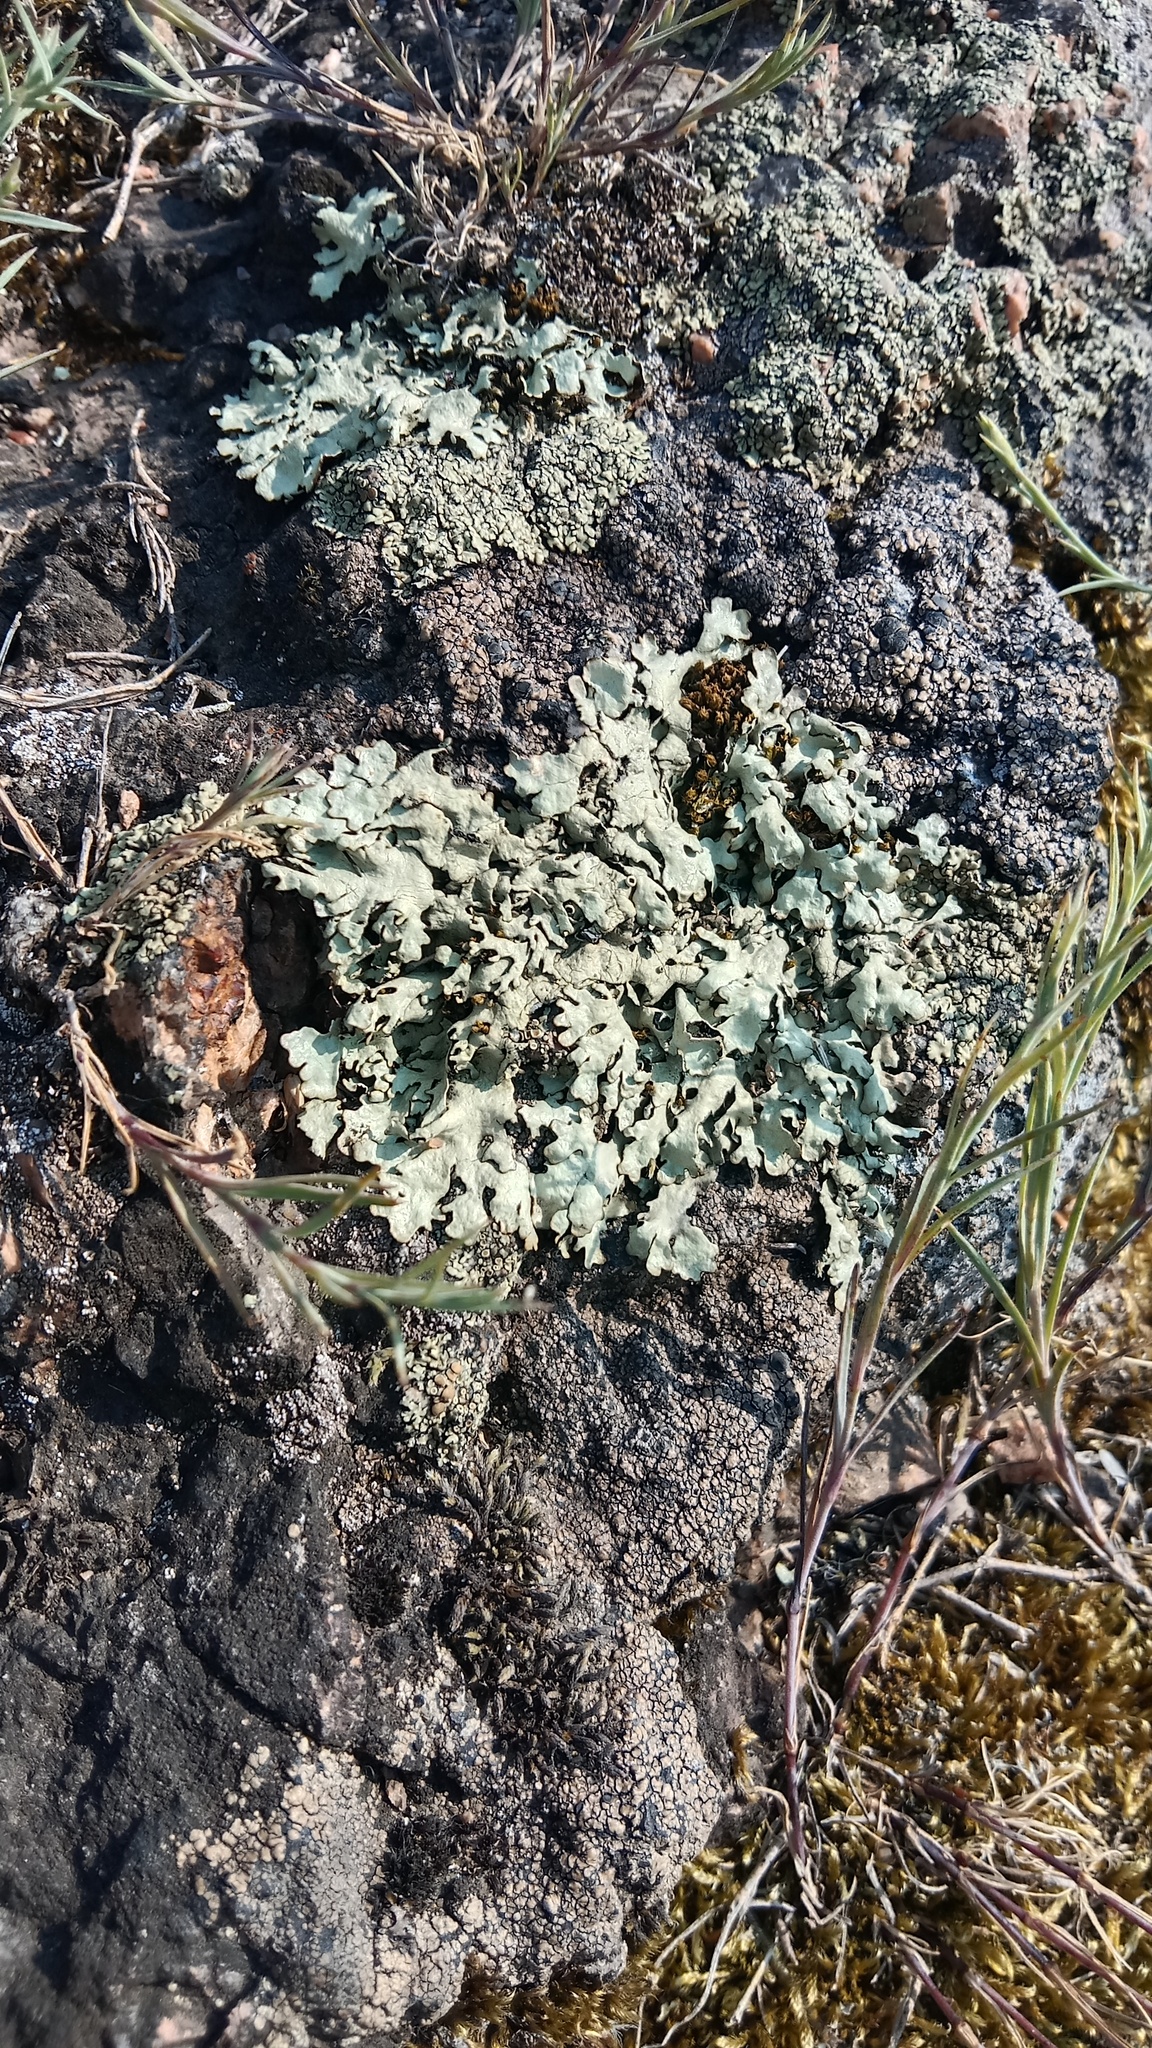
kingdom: Fungi
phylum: Ascomycota
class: Lecanoromycetes
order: Lecanorales
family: Parmeliaceae
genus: Xanthoparmelia
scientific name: Xanthoparmelia stenophylla
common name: Shingled rock shield
